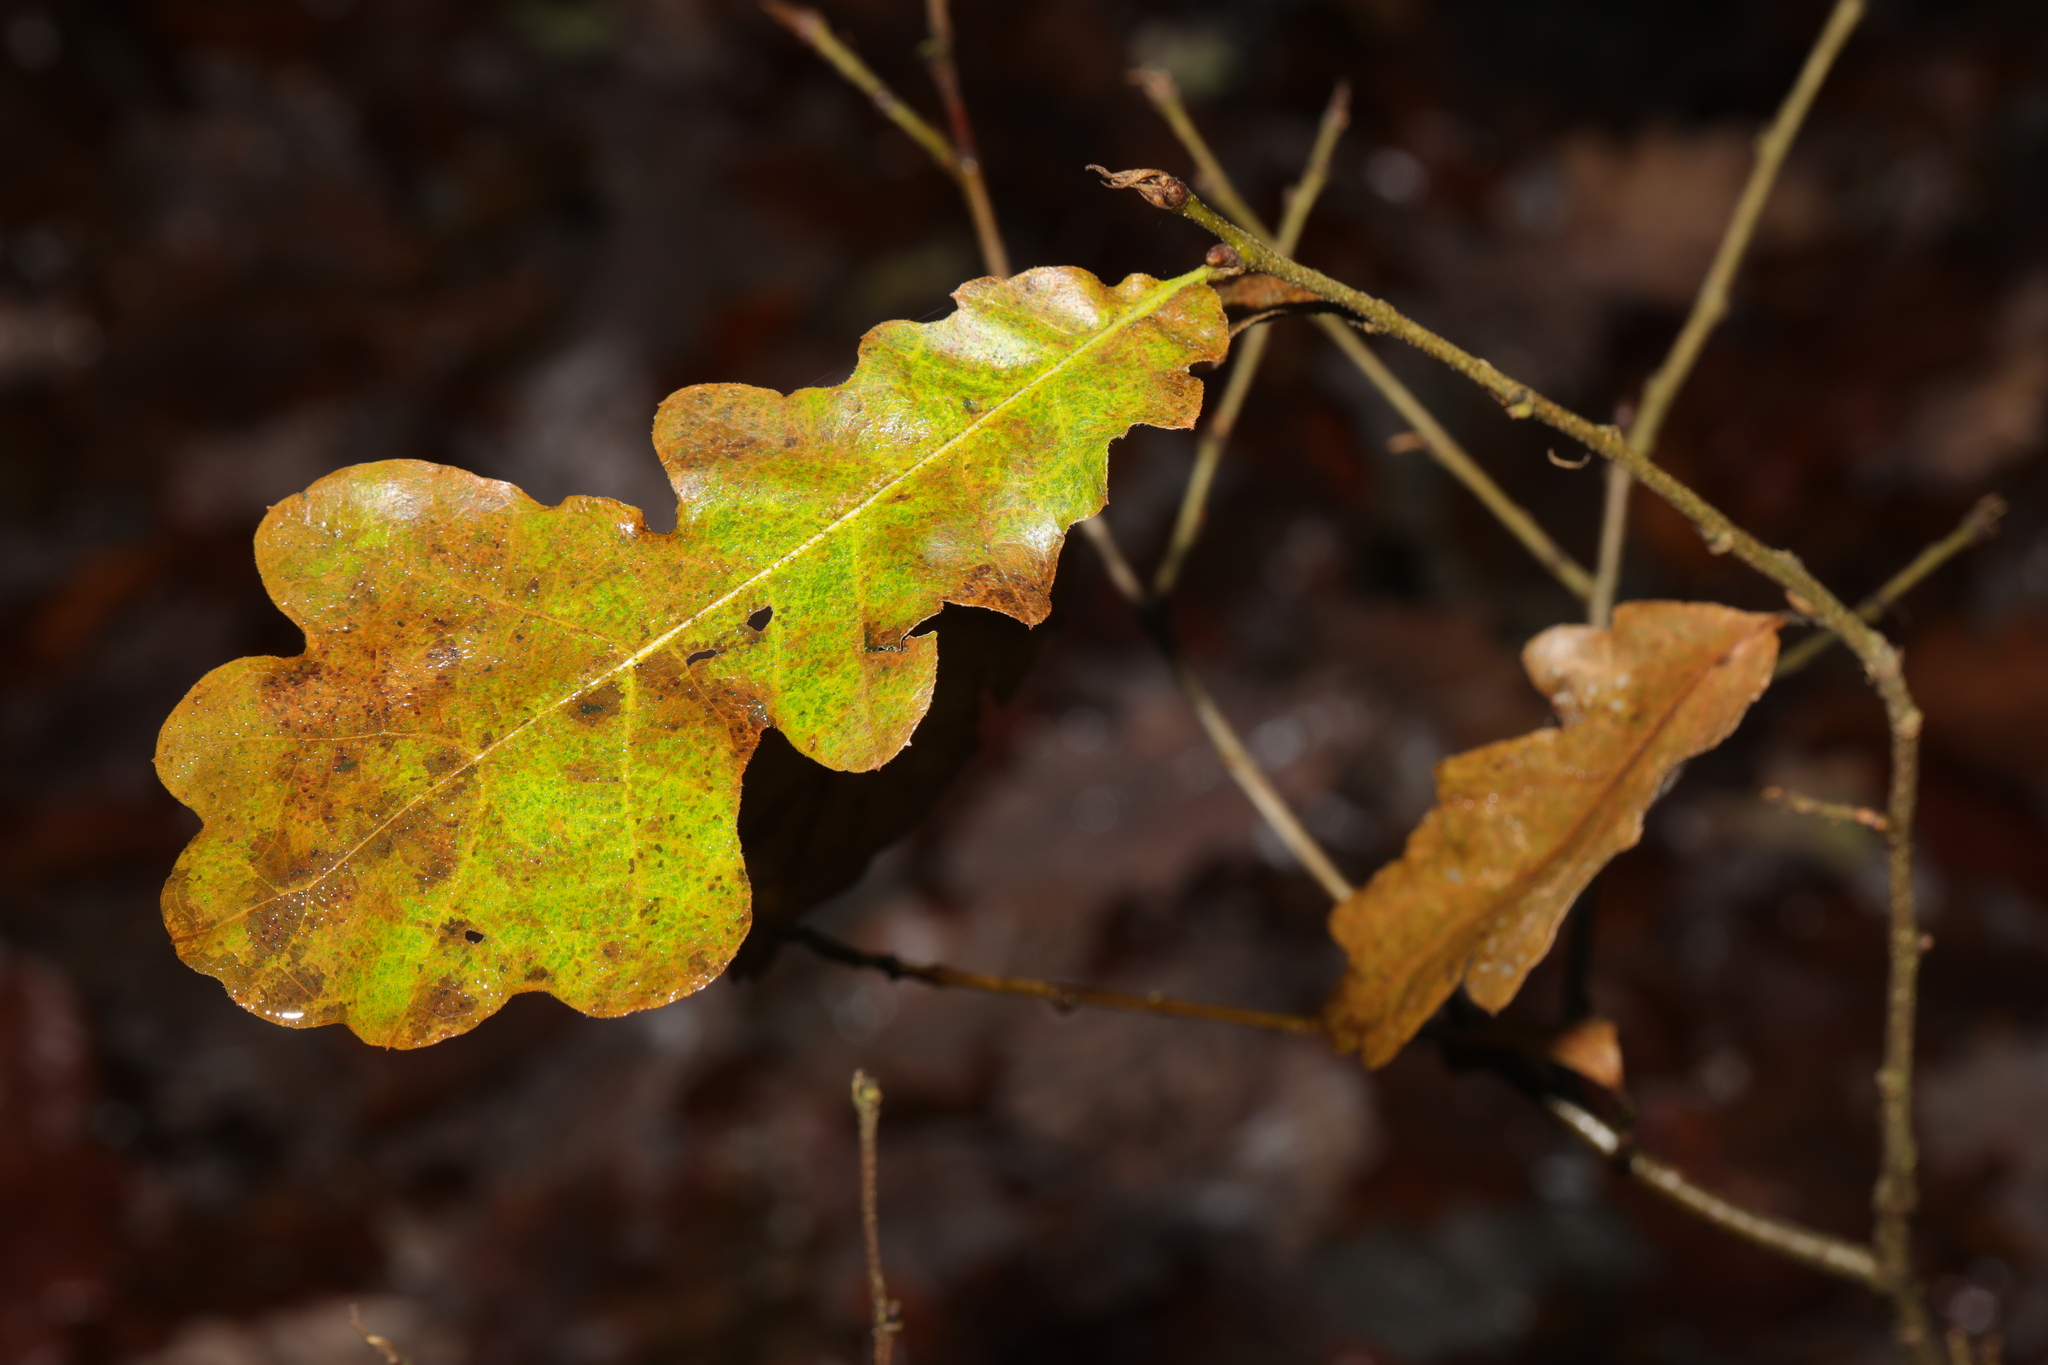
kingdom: Plantae
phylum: Tracheophyta
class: Magnoliopsida
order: Fagales
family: Fagaceae
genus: Quercus
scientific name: Quercus robur
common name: Pedunculate oak
